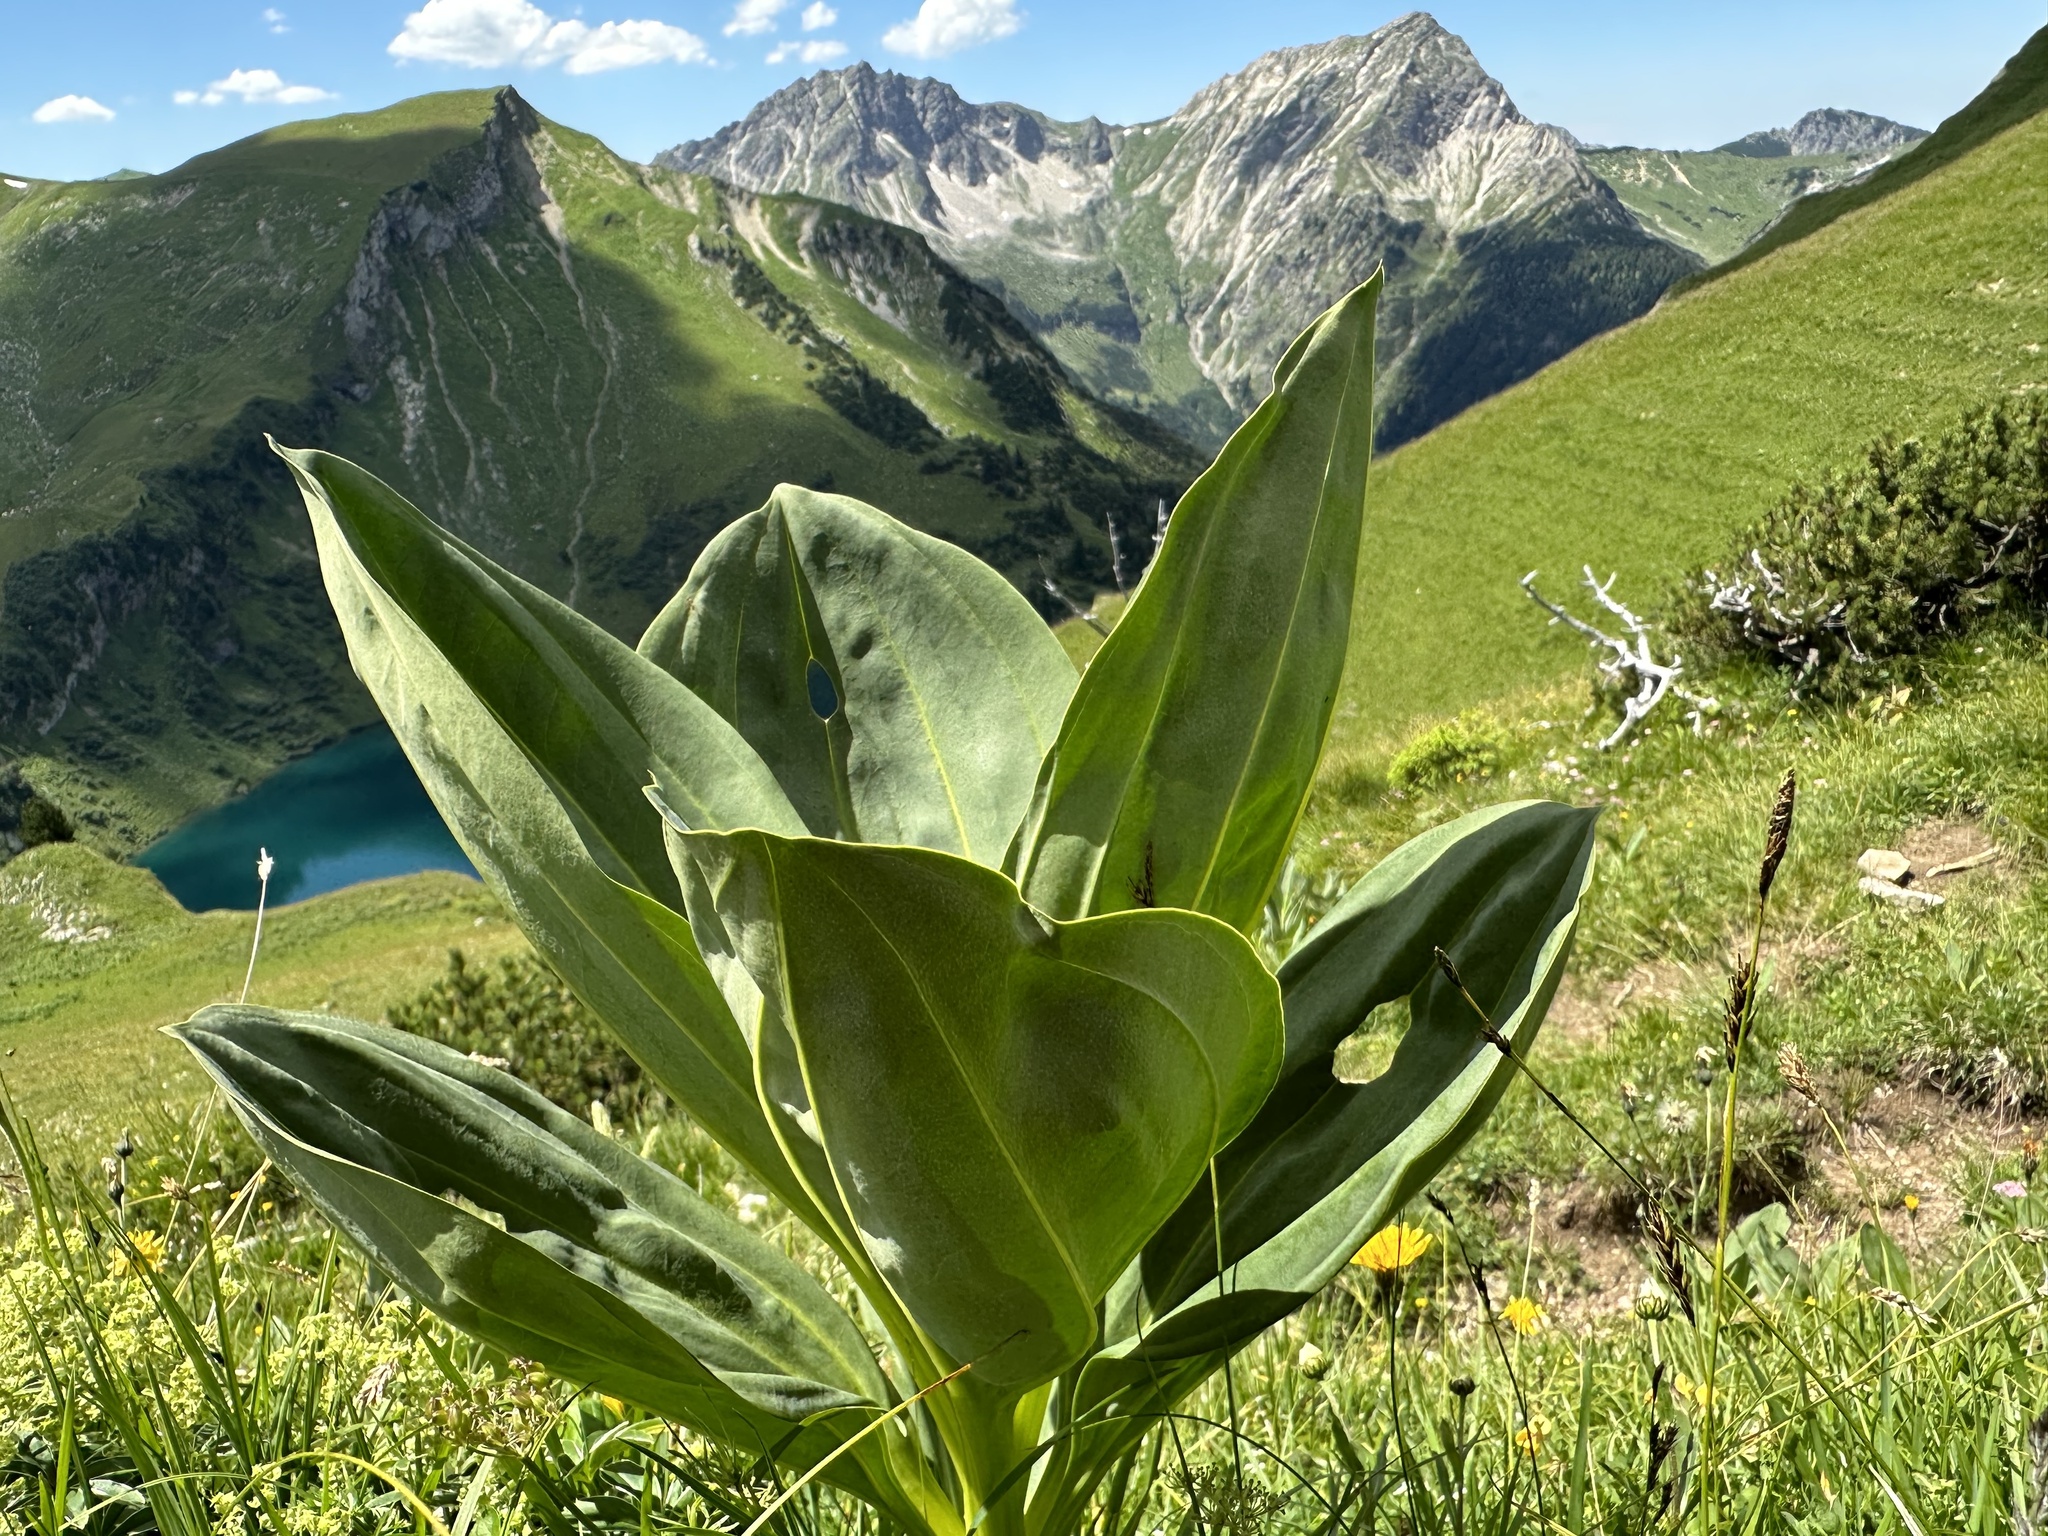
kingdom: Plantae
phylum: Tracheophyta
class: Magnoliopsida
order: Gentianales
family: Gentianaceae
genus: Gentiana
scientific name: Gentiana lutea
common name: Great yellow gentian
